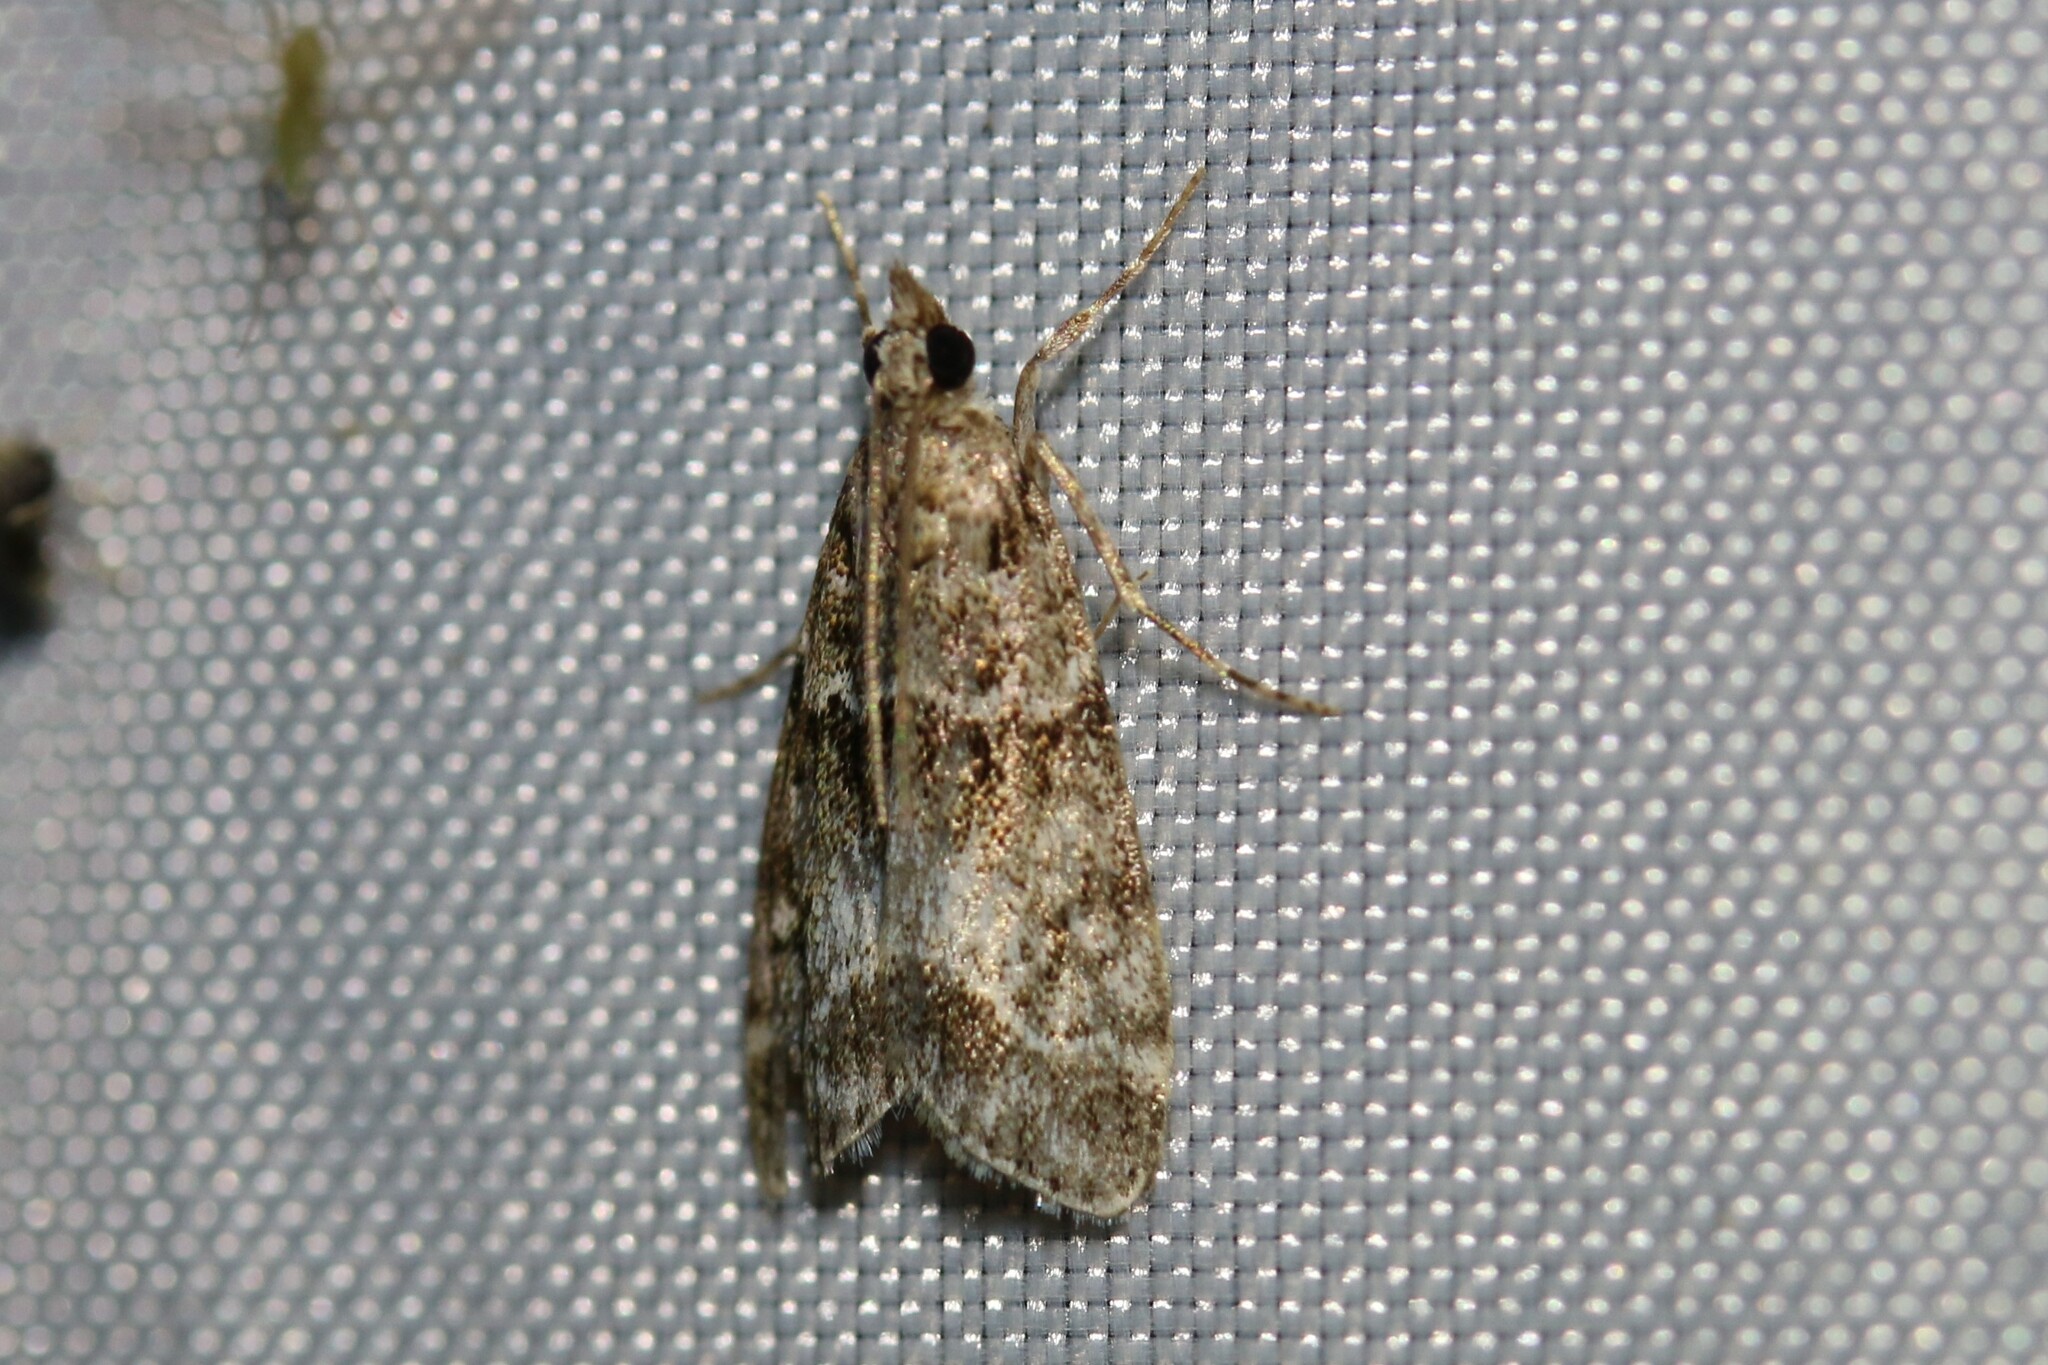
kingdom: Animalia
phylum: Arthropoda
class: Insecta
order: Lepidoptera
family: Crambidae
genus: Eudonia
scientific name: Eudonia mercurella
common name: Small grey
